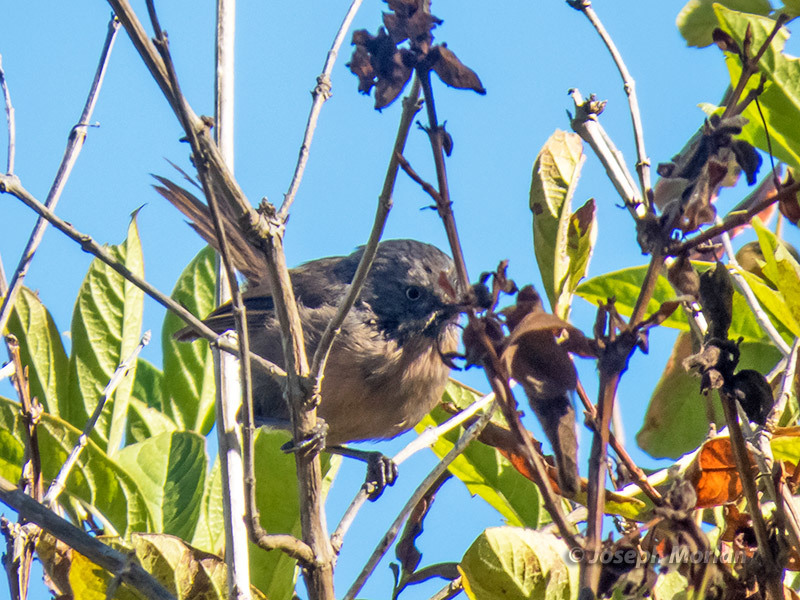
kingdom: Animalia
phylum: Chordata
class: Aves
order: Passeriformes
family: Sylviidae
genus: Chamaea
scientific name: Chamaea fasciata
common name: Wrentit
